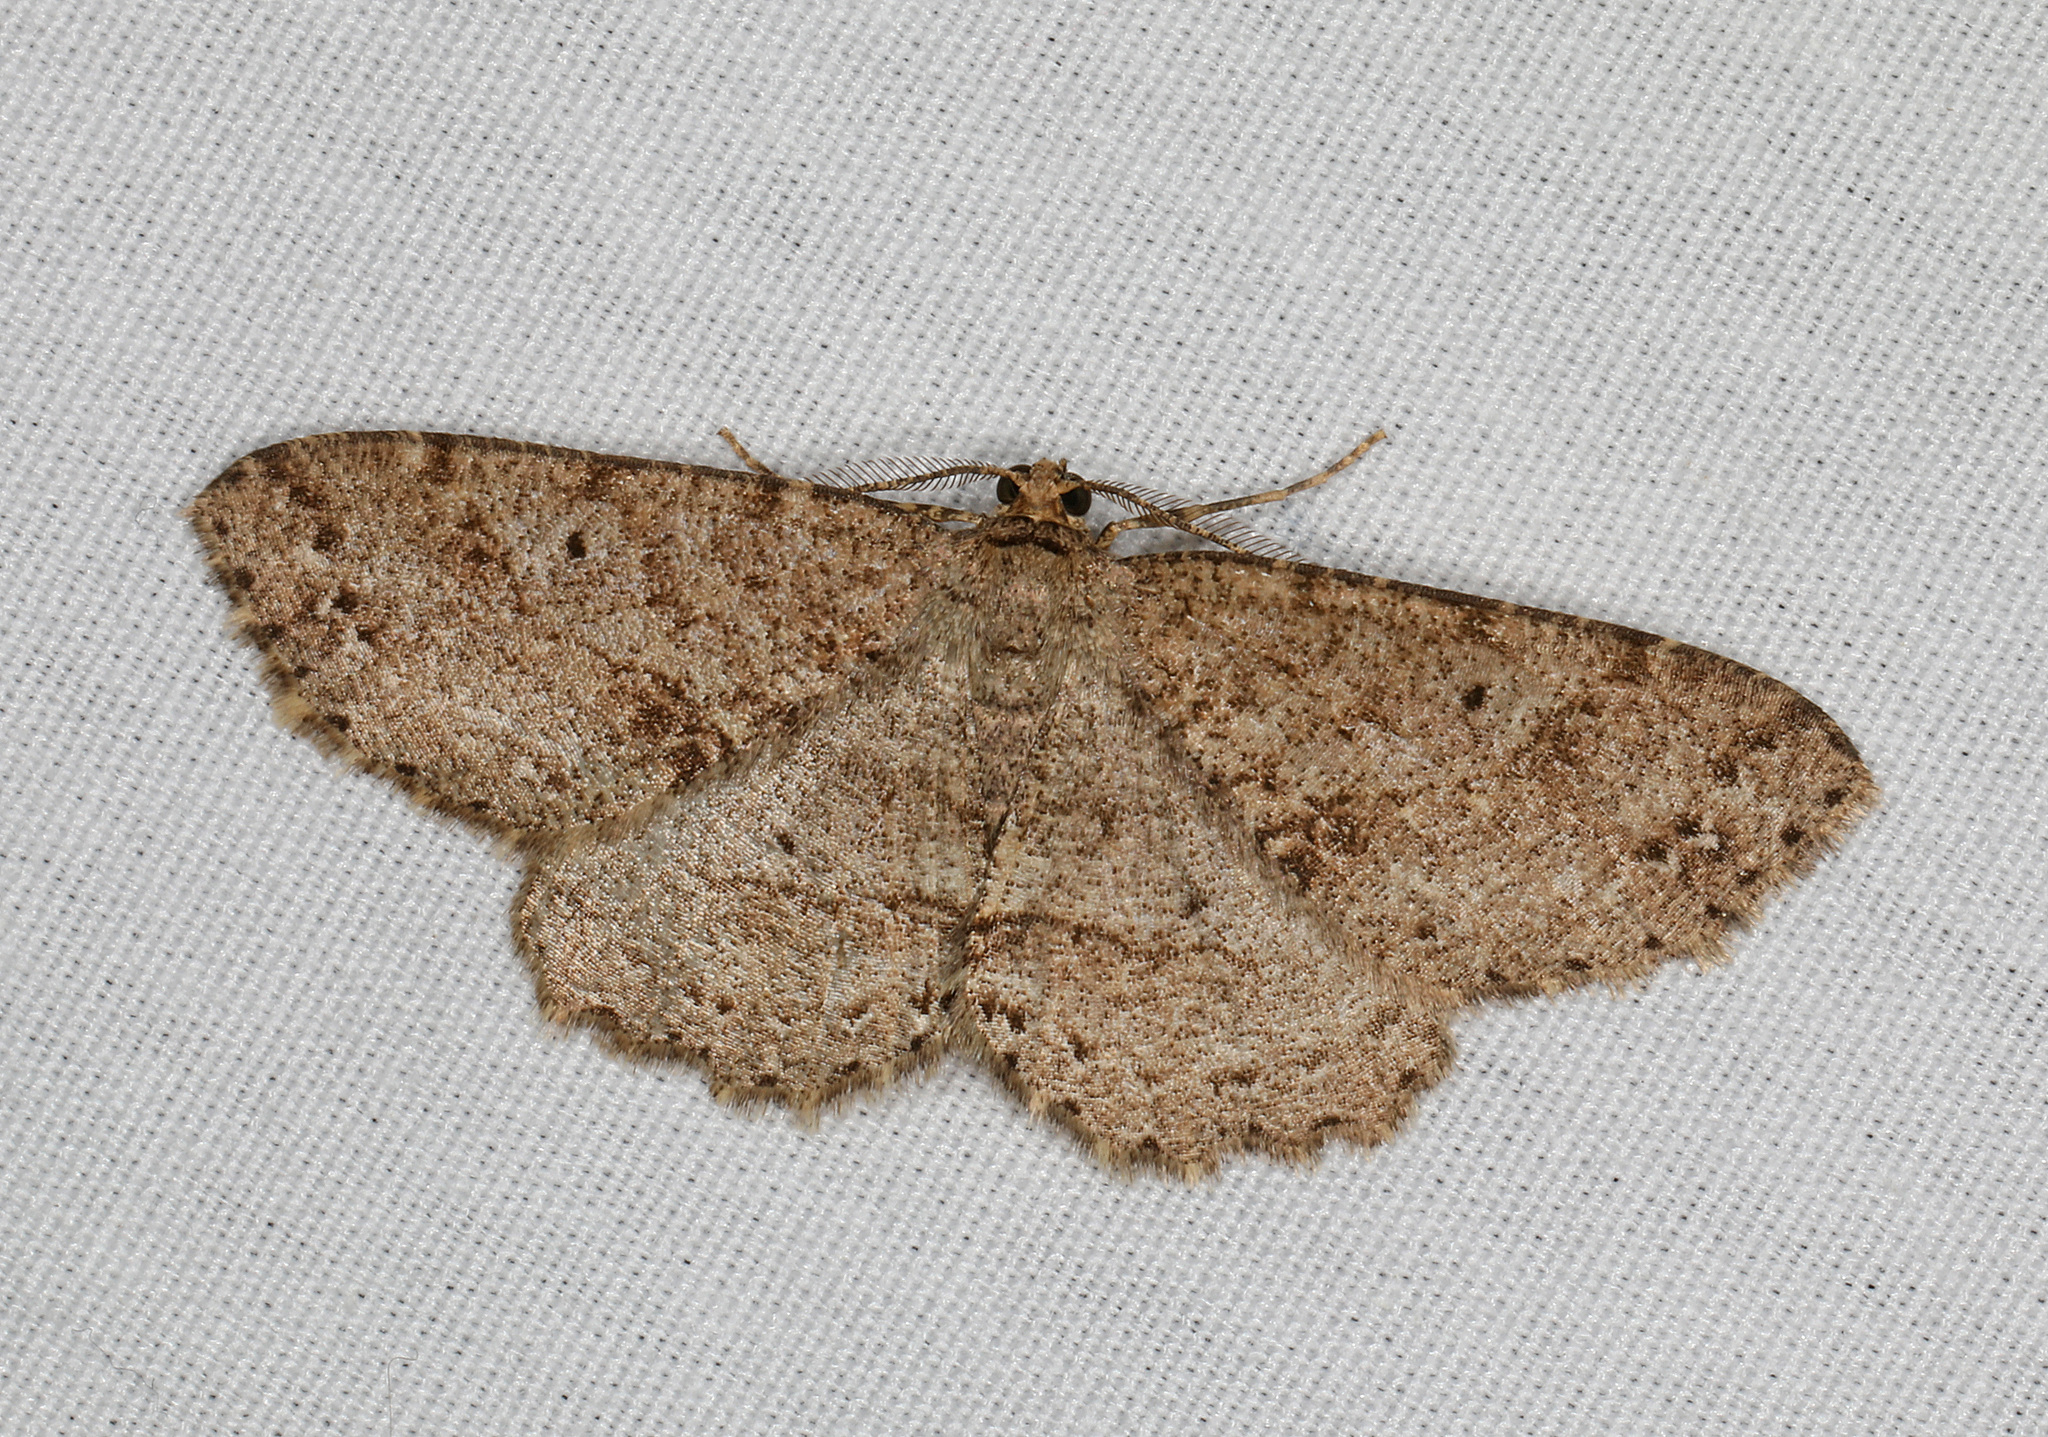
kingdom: Animalia
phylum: Arthropoda
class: Insecta
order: Lepidoptera
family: Geometridae
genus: Melanolophia
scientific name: Melanolophia canadaria
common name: Canadian melanolophia
